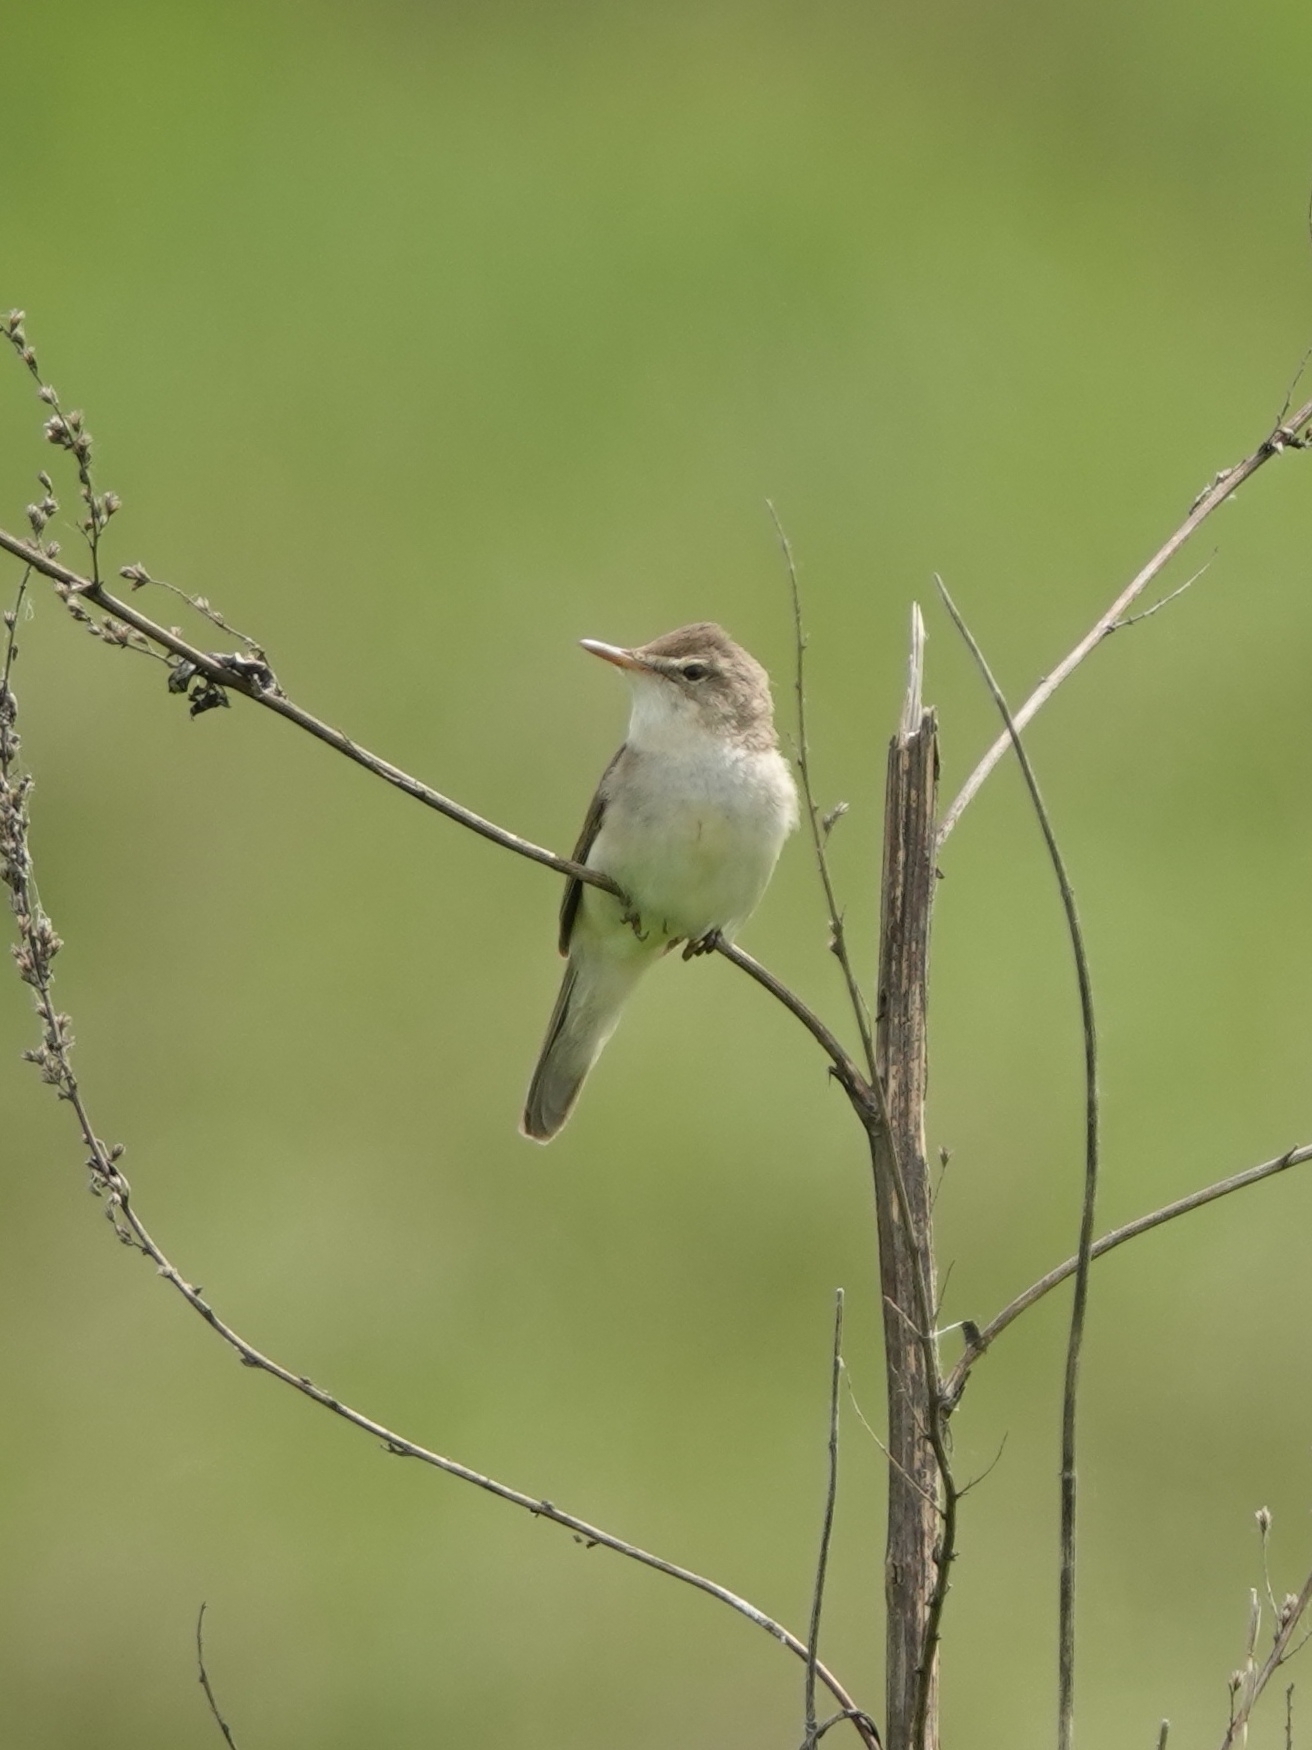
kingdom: Animalia
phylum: Chordata
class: Aves
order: Passeriformes
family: Acrocephalidae
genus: Acrocephalus
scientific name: Acrocephalus dumetorum
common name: Blyth's reed warbler
